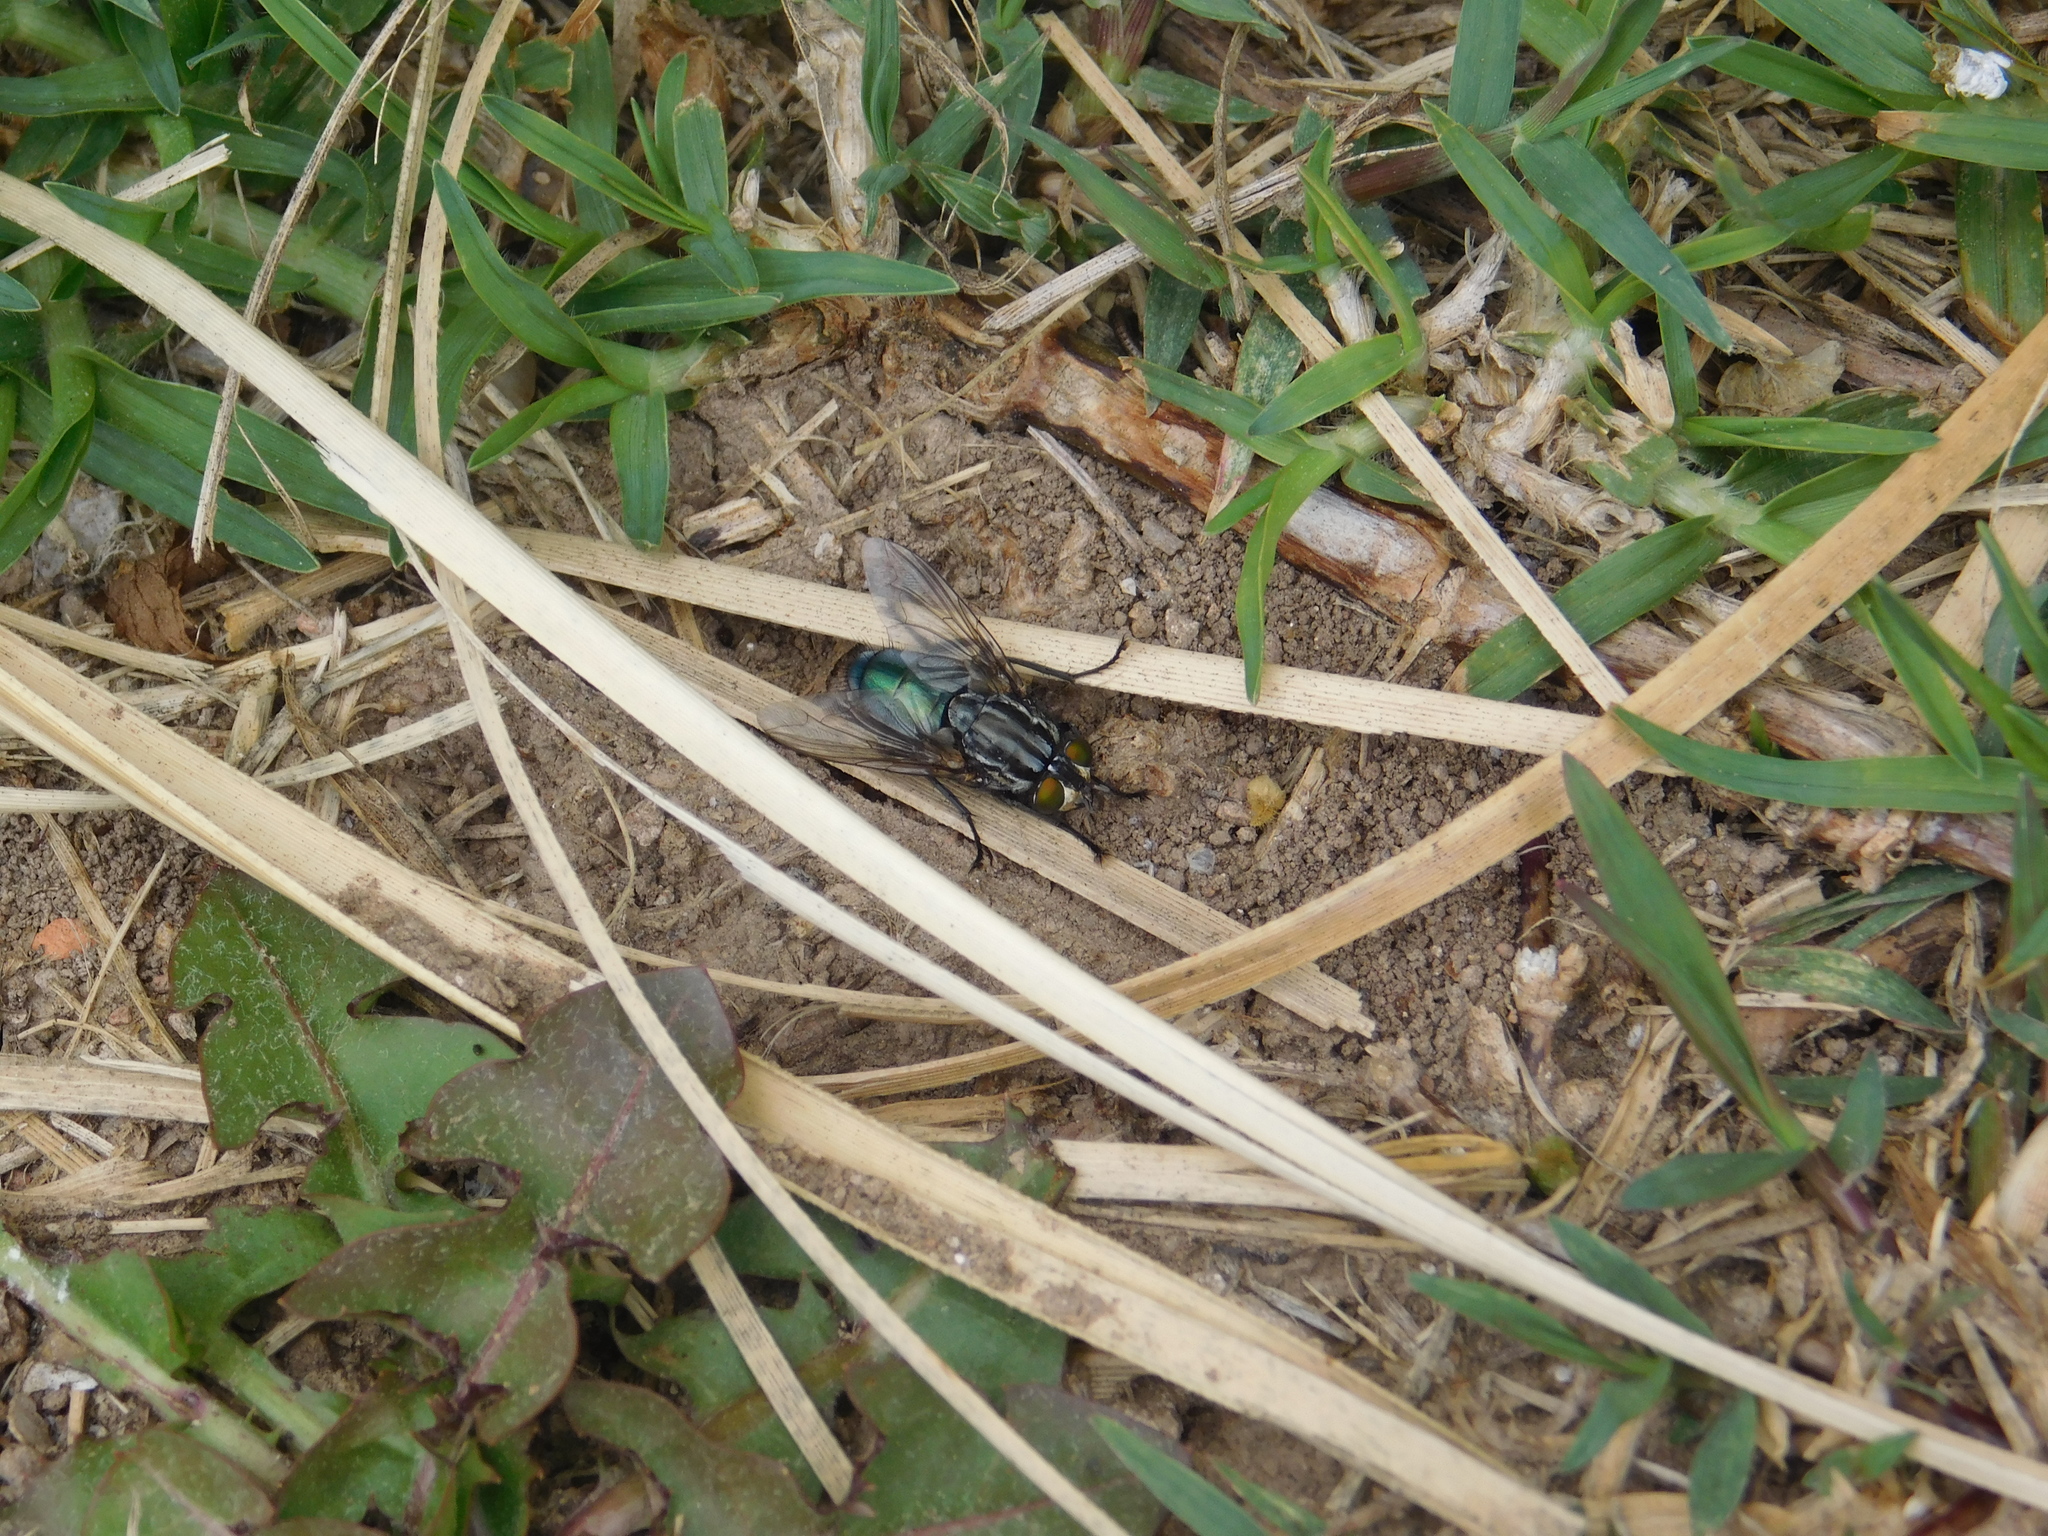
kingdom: Animalia
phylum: Arthropoda
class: Insecta
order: Diptera
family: Calliphoridae
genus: Sarconesia
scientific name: Sarconesia chlorogaster
